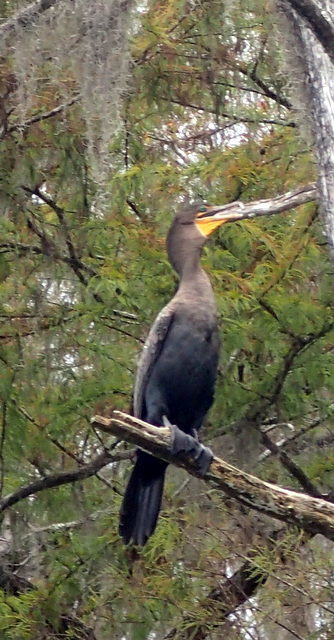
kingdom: Animalia
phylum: Chordata
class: Aves
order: Suliformes
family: Phalacrocoracidae
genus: Phalacrocorax
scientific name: Phalacrocorax auritus
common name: Double-crested cormorant
